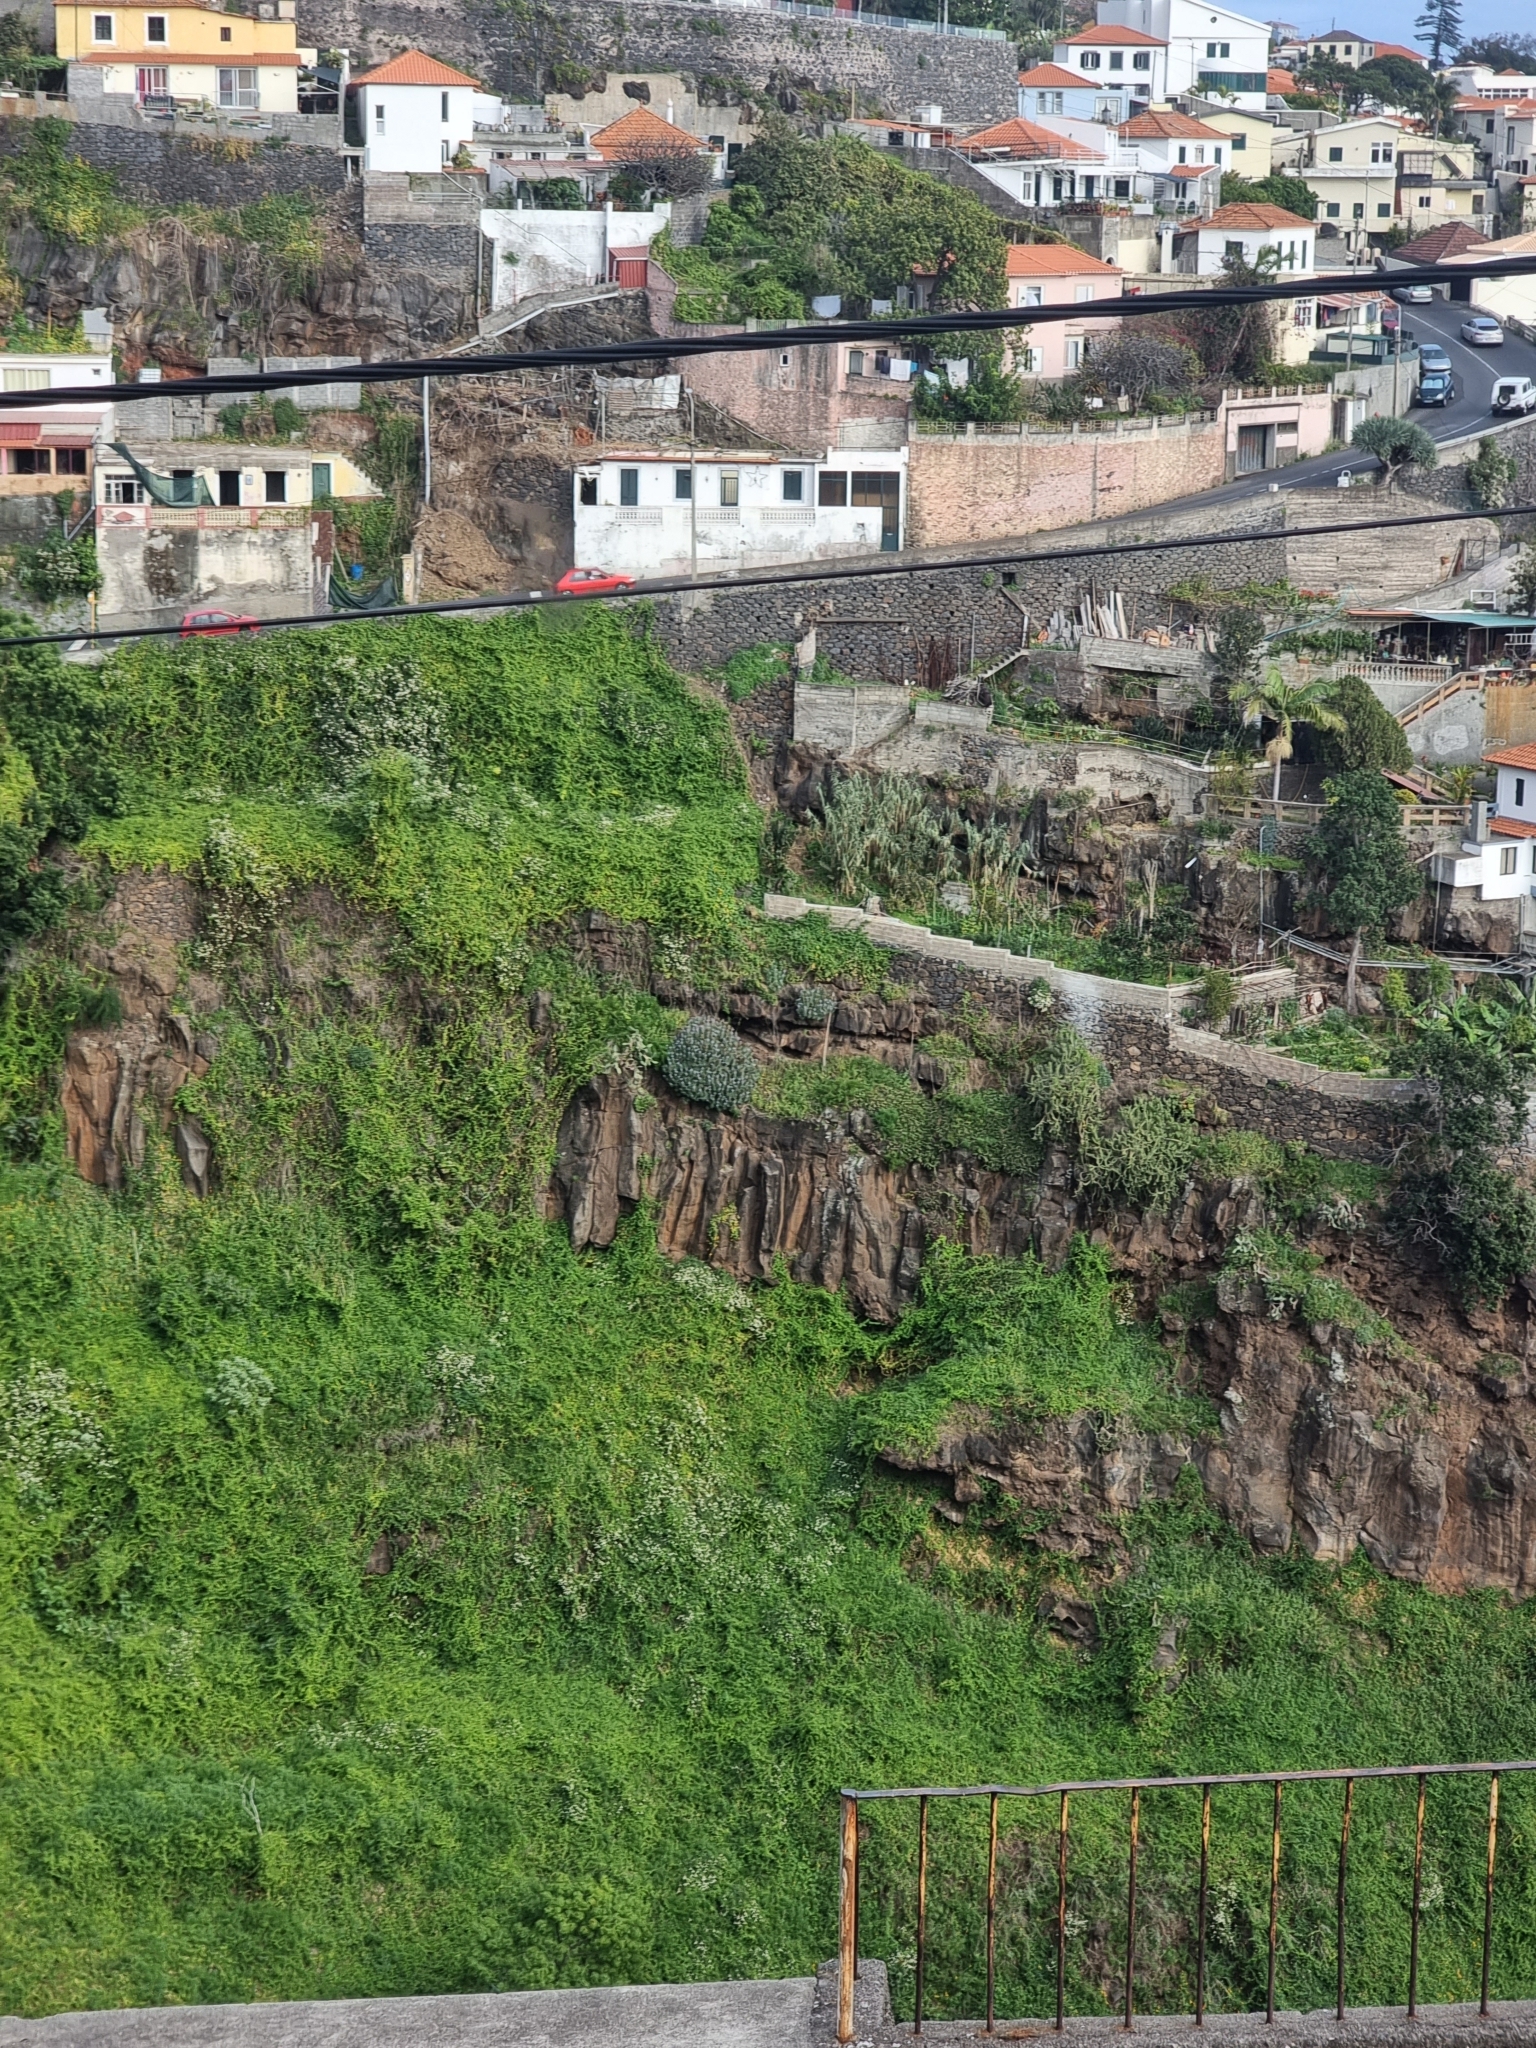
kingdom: Plantae
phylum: Tracheophyta
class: Magnoliopsida
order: Boraginales
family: Boraginaceae
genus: Echium
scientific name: Echium nervosum
